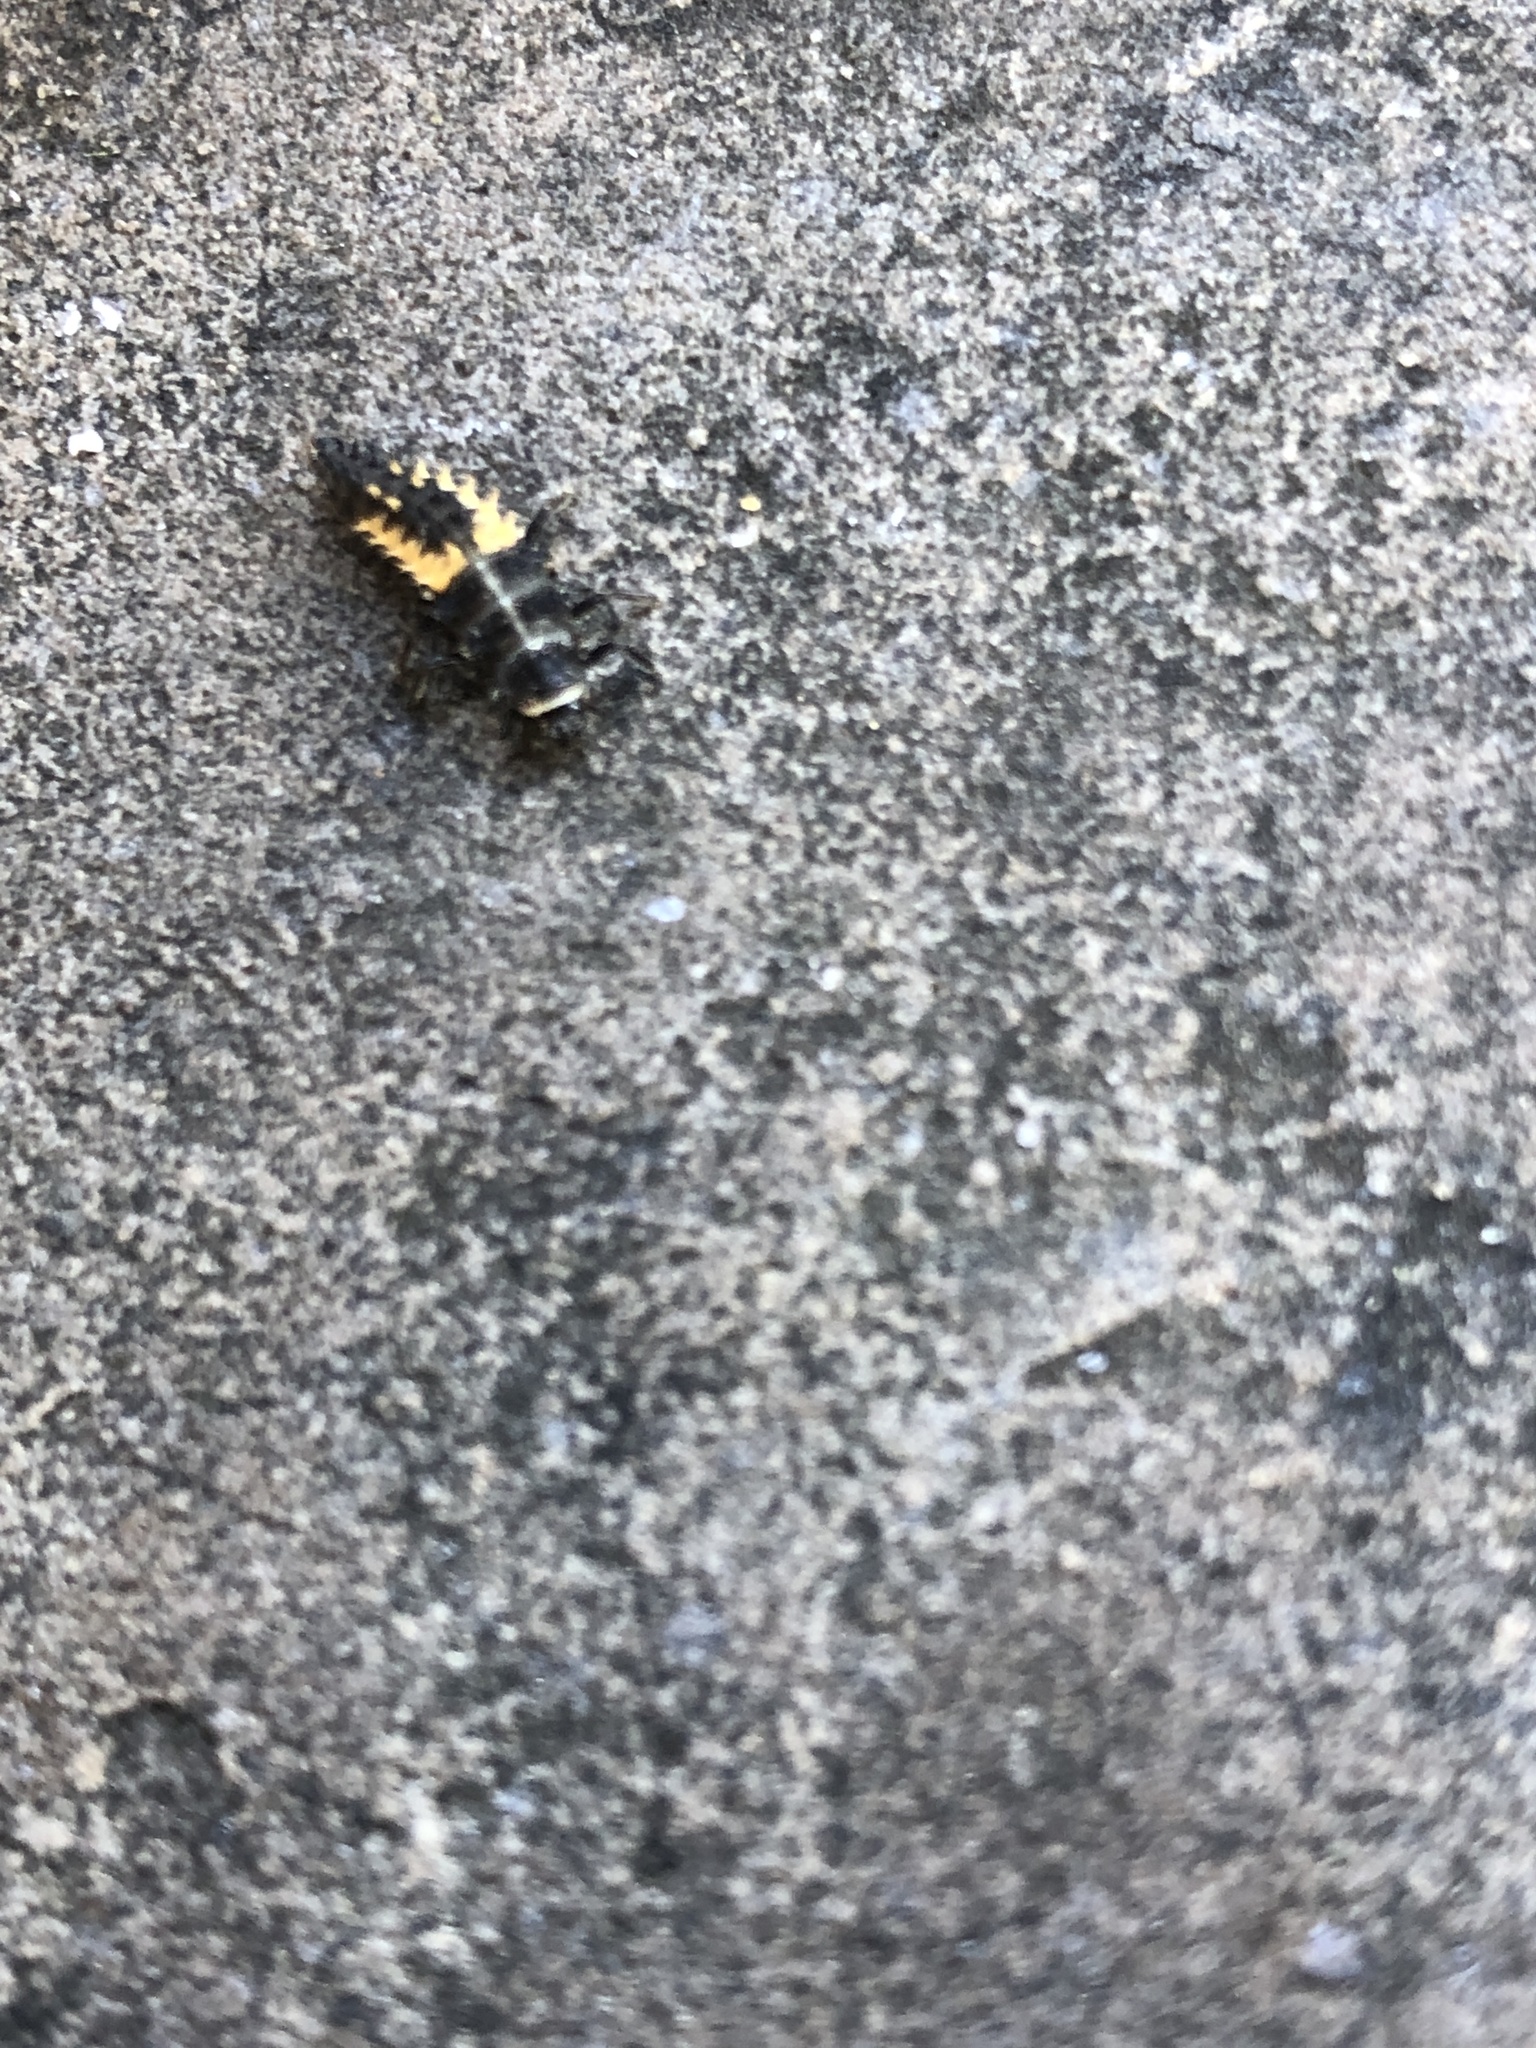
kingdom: Animalia
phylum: Arthropoda
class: Insecta
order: Coleoptera
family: Coccinellidae
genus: Harmonia
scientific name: Harmonia axyridis
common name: Harlequin ladybird
